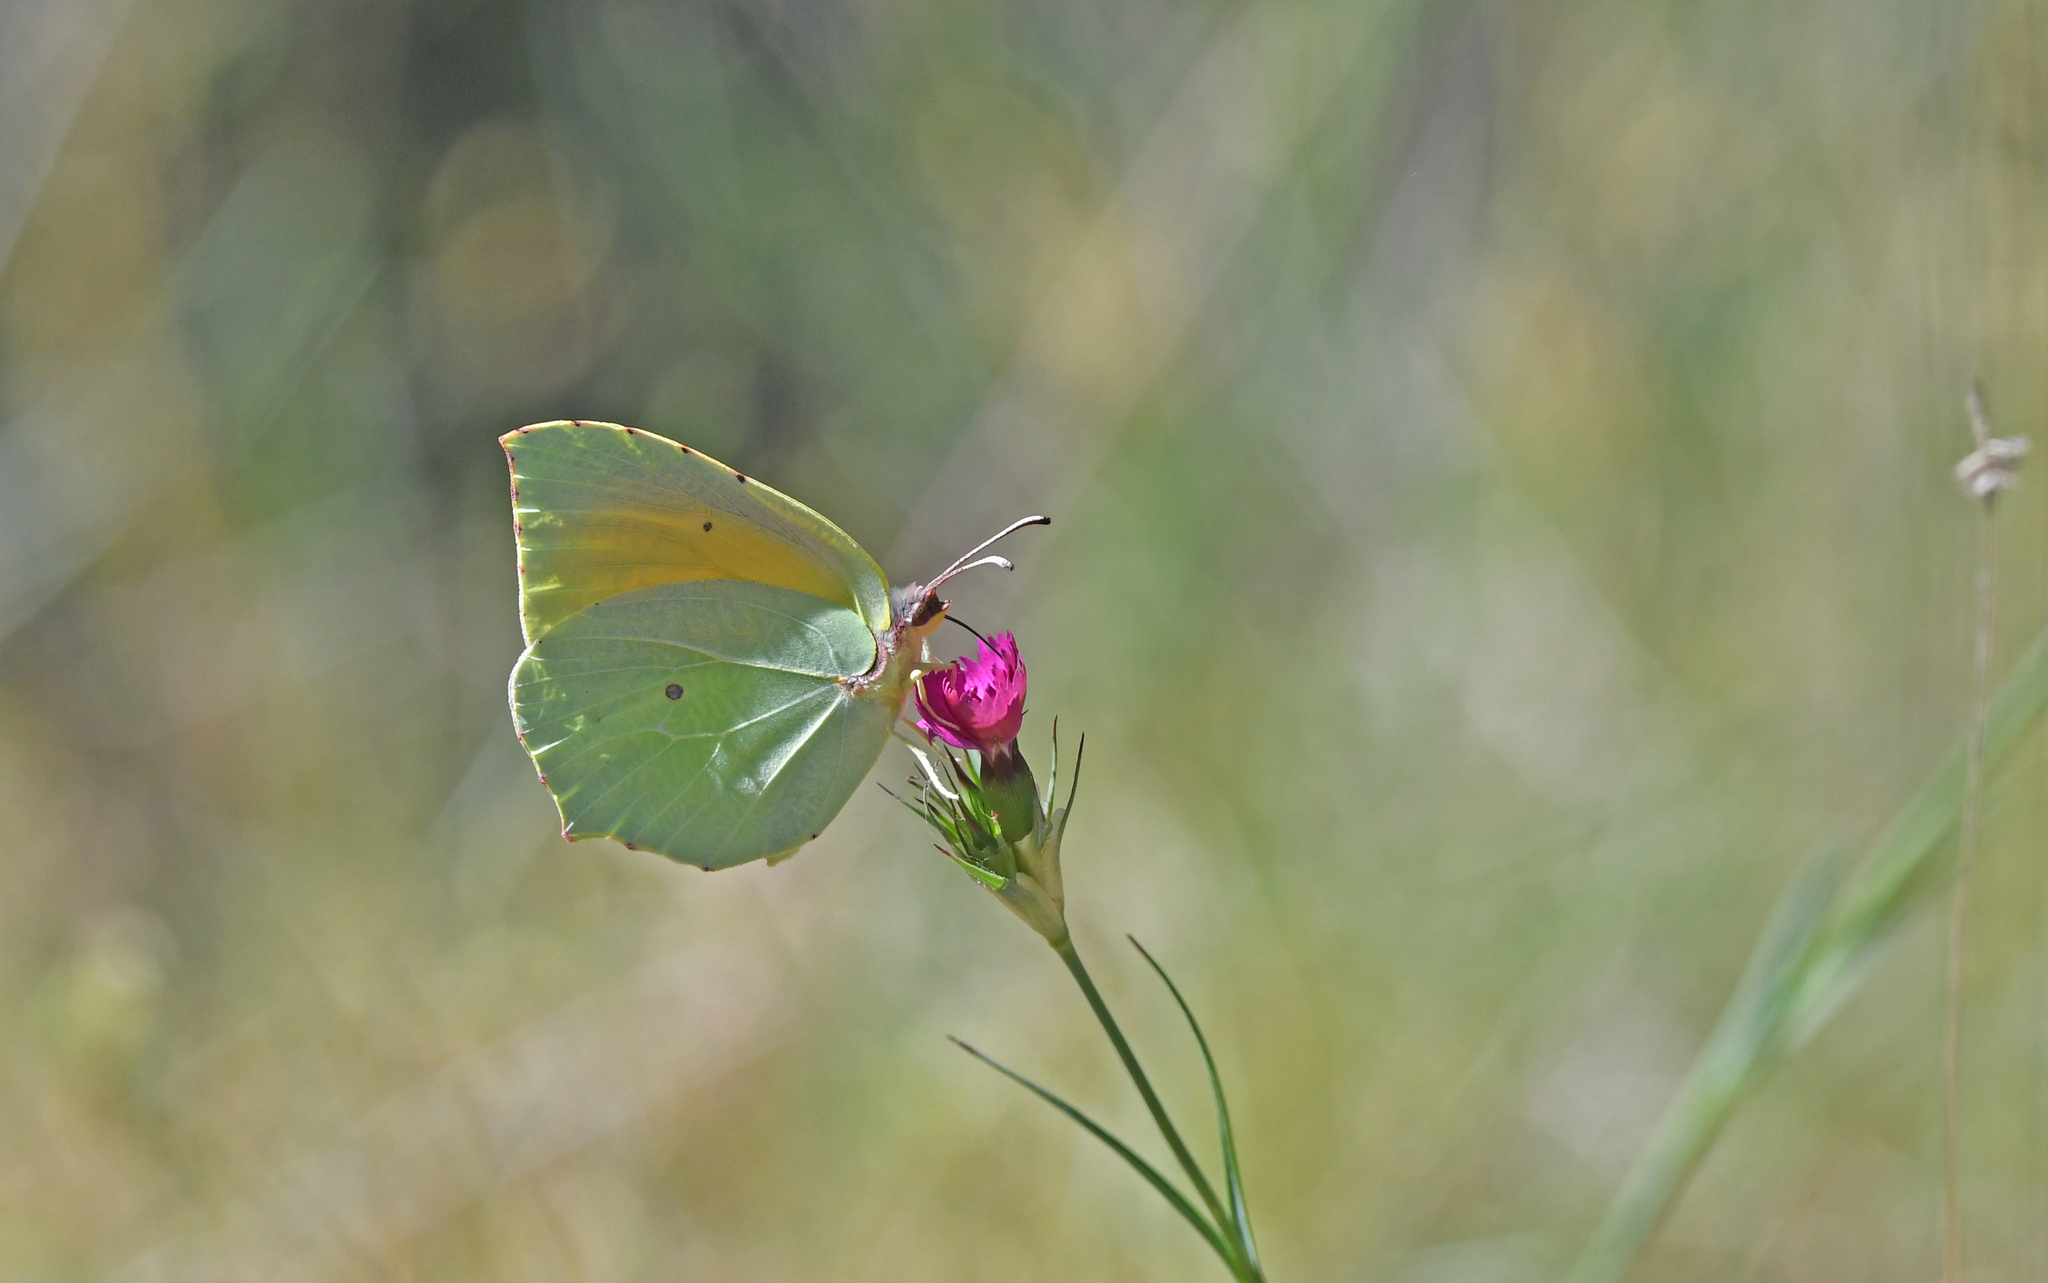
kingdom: Animalia
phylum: Arthropoda
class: Insecta
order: Lepidoptera
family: Pieridae
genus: Gonepteryx
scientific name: Gonepteryx cleopatra
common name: Cleopatra
